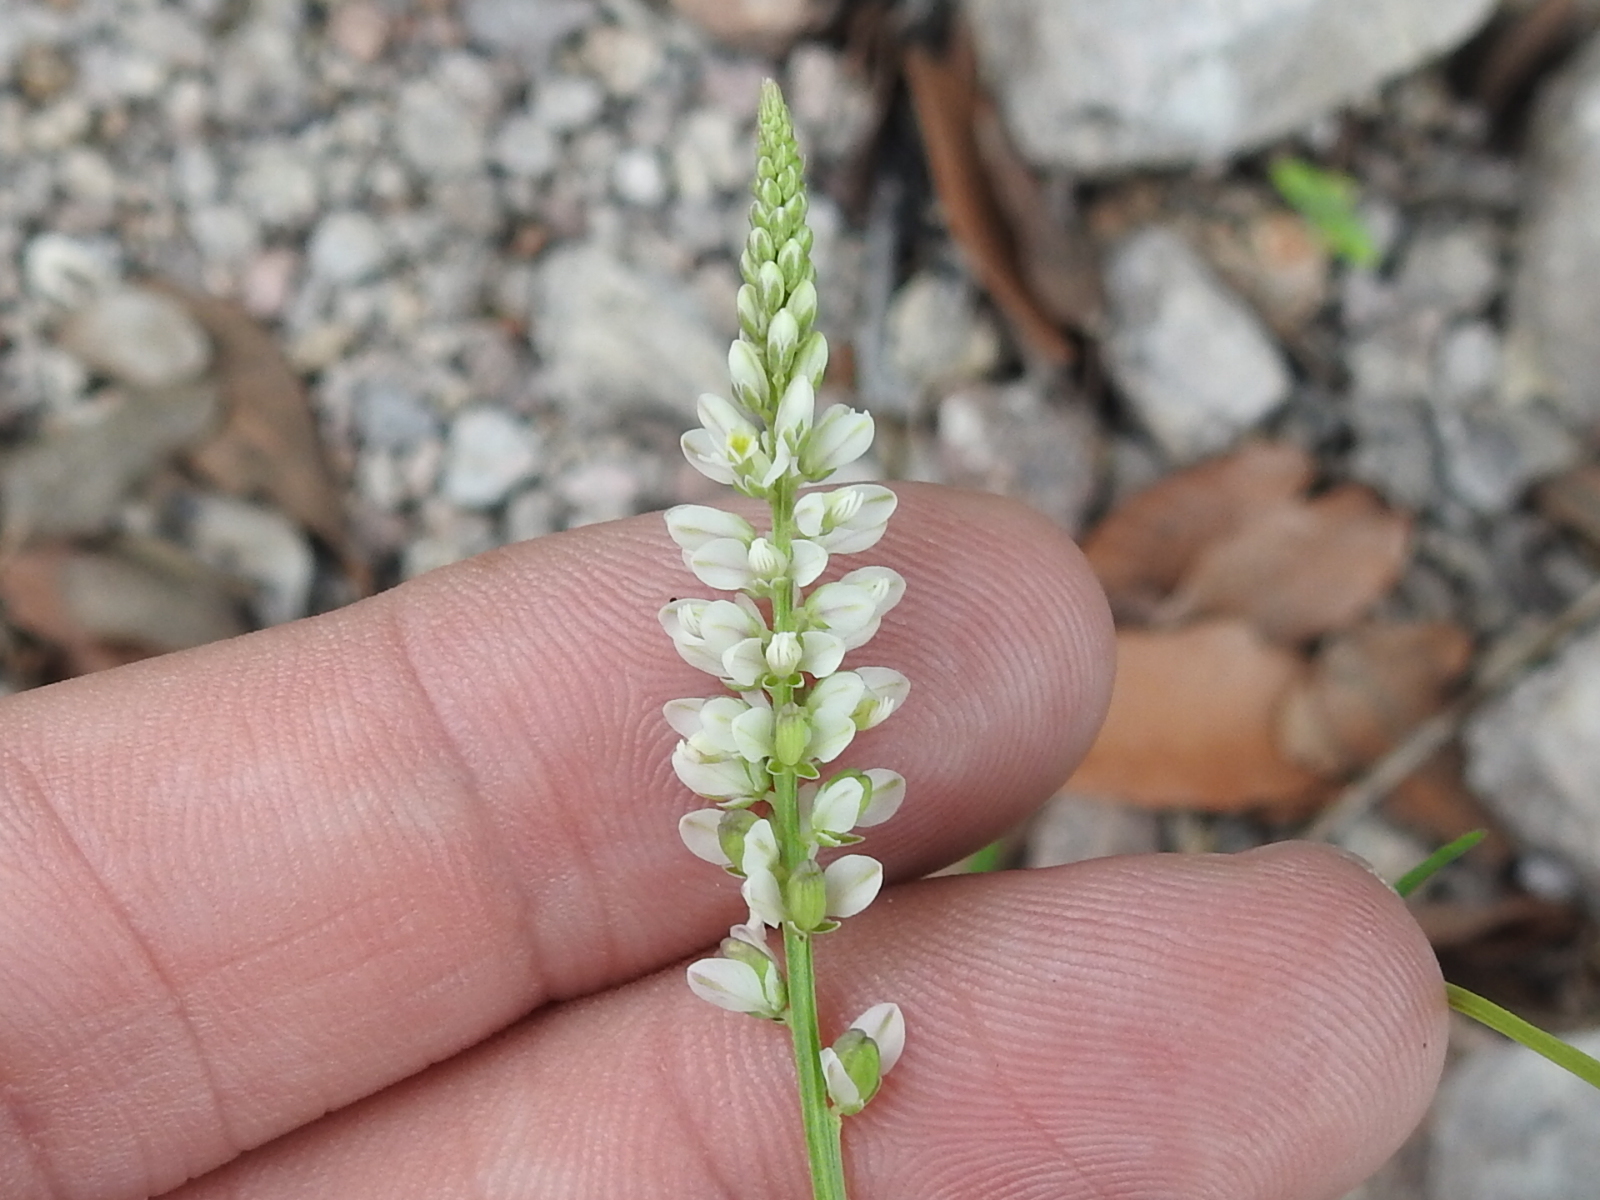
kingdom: Plantae
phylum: Tracheophyta
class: Magnoliopsida
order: Fabales
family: Polygalaceae
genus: Polygala
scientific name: Polygala alba
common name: White milkwort
